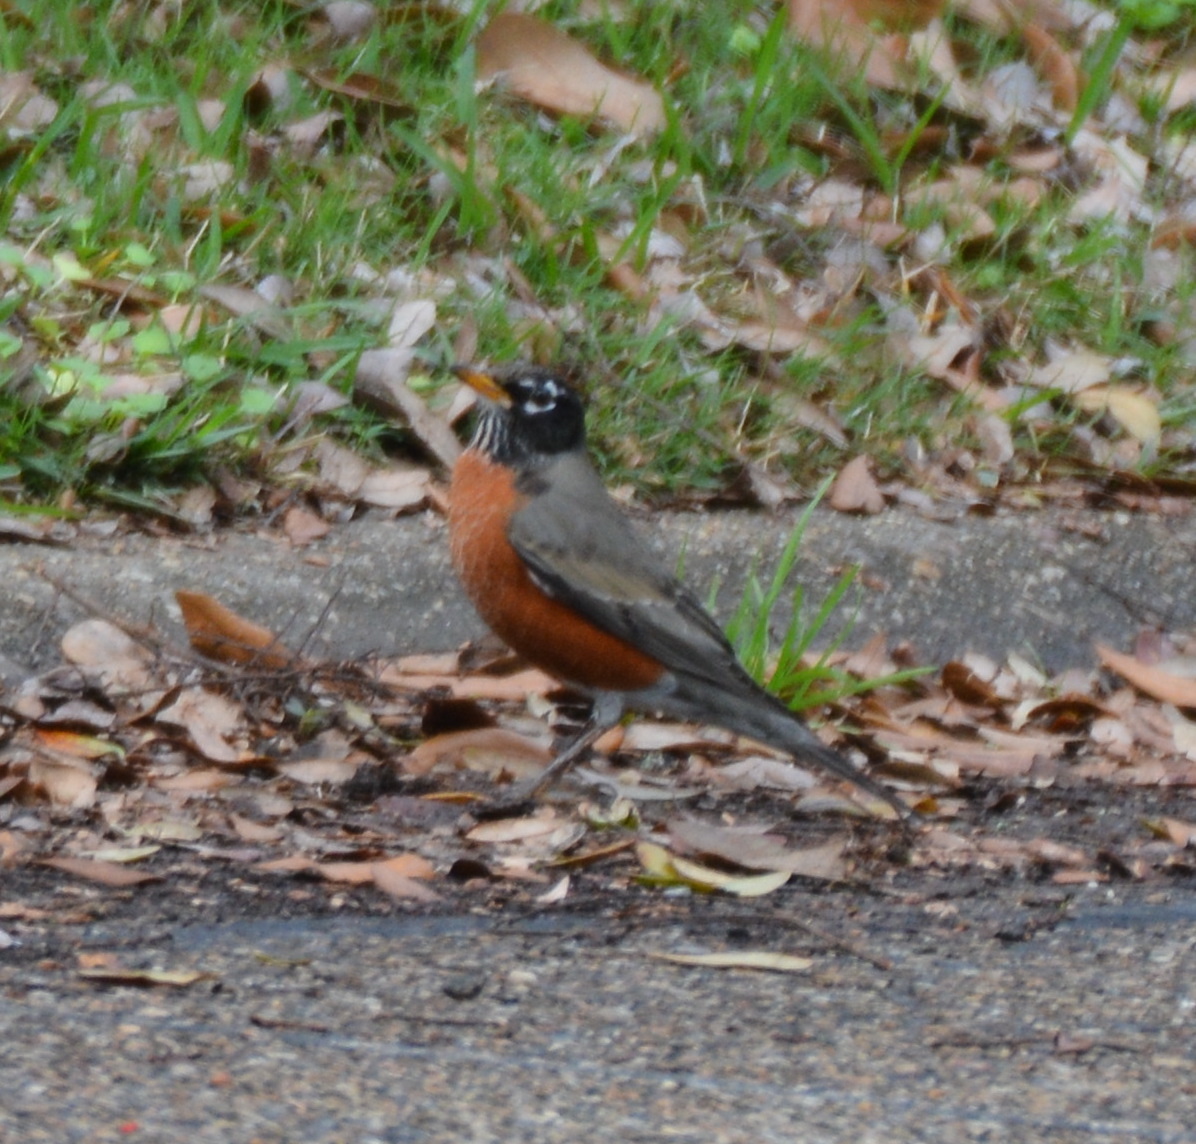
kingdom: Animalia
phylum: Chordata
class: Aves
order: Passeriformes
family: Turdidae
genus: Turdus
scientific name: Turdus migratorius
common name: American robin
